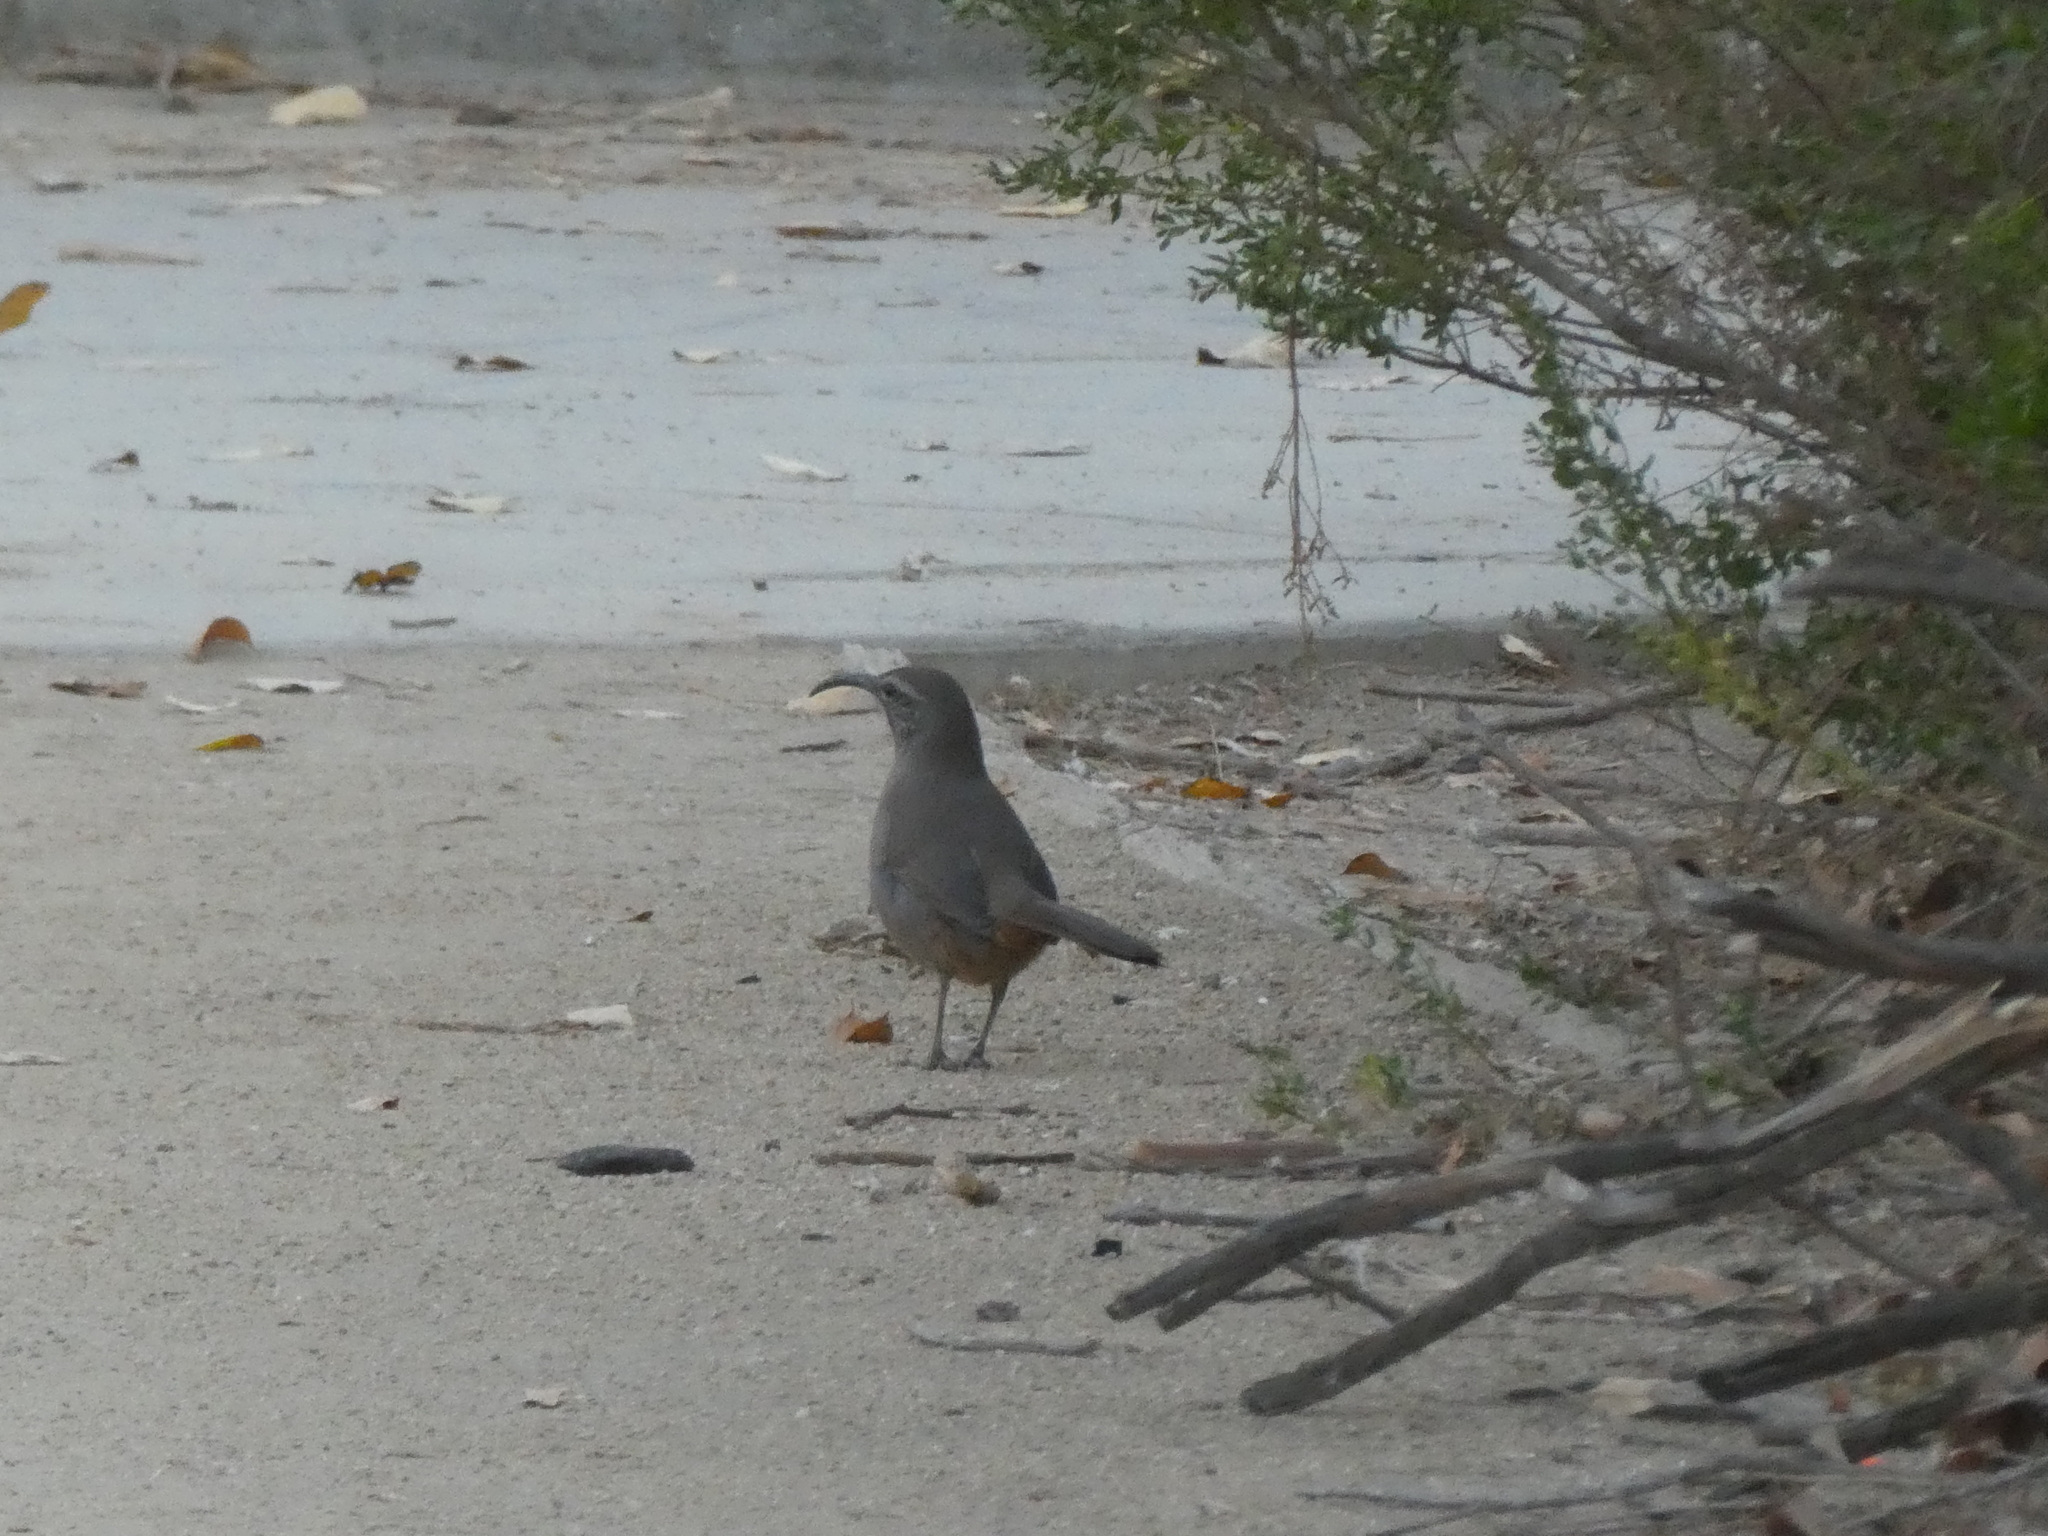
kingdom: Animalia
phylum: Chordata
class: Aves
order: Passeriformes
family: Mimidae
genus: Toxostoma
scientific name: Toxostoma redivivum
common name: California thrasher
